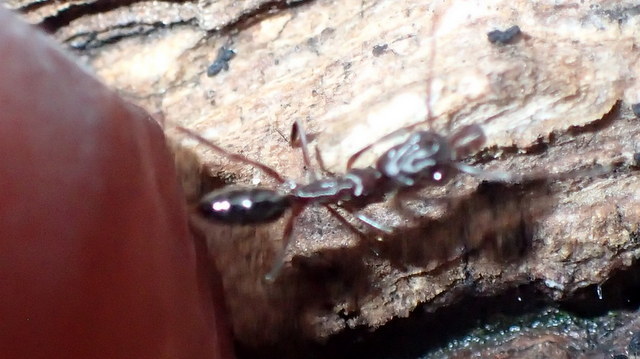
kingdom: Animalia
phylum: Arthropoda
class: Insecta
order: Hymenoptera
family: Formicidae
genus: Odontomachus
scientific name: Odontomachus brunneus
